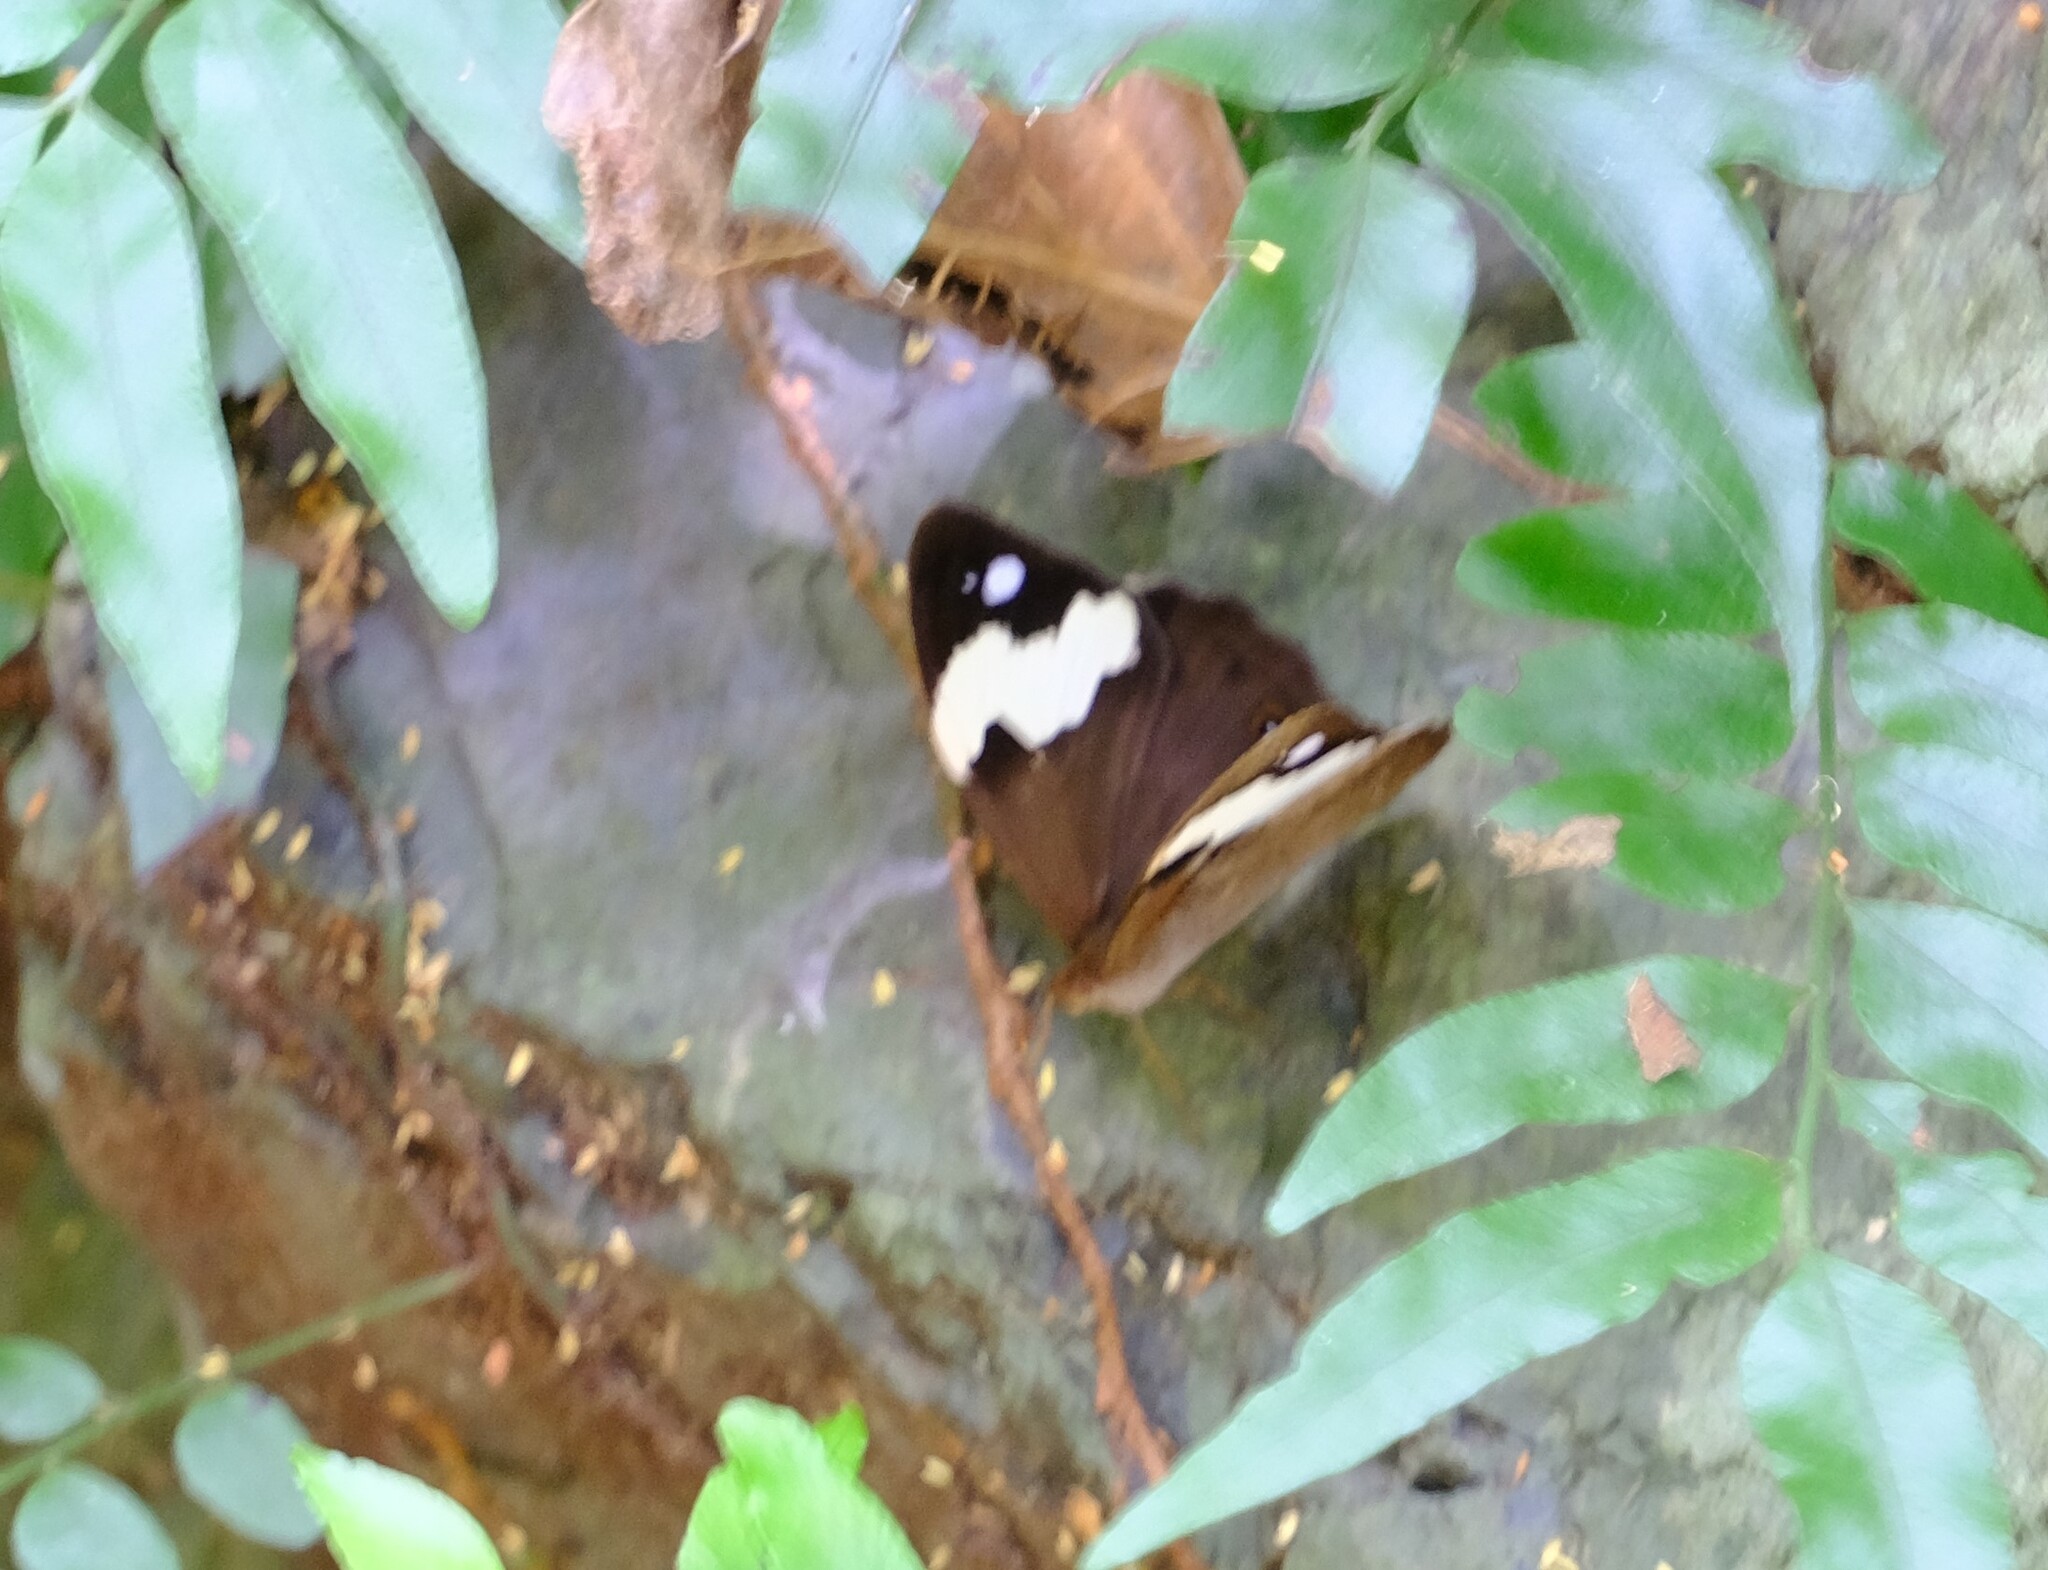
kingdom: Animalia
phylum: Arthropoda
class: Insecta
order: Lepidoptera
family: Nymphalidae
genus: Heteronympha
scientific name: Heteronympha mirifica
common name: Wonder brown
